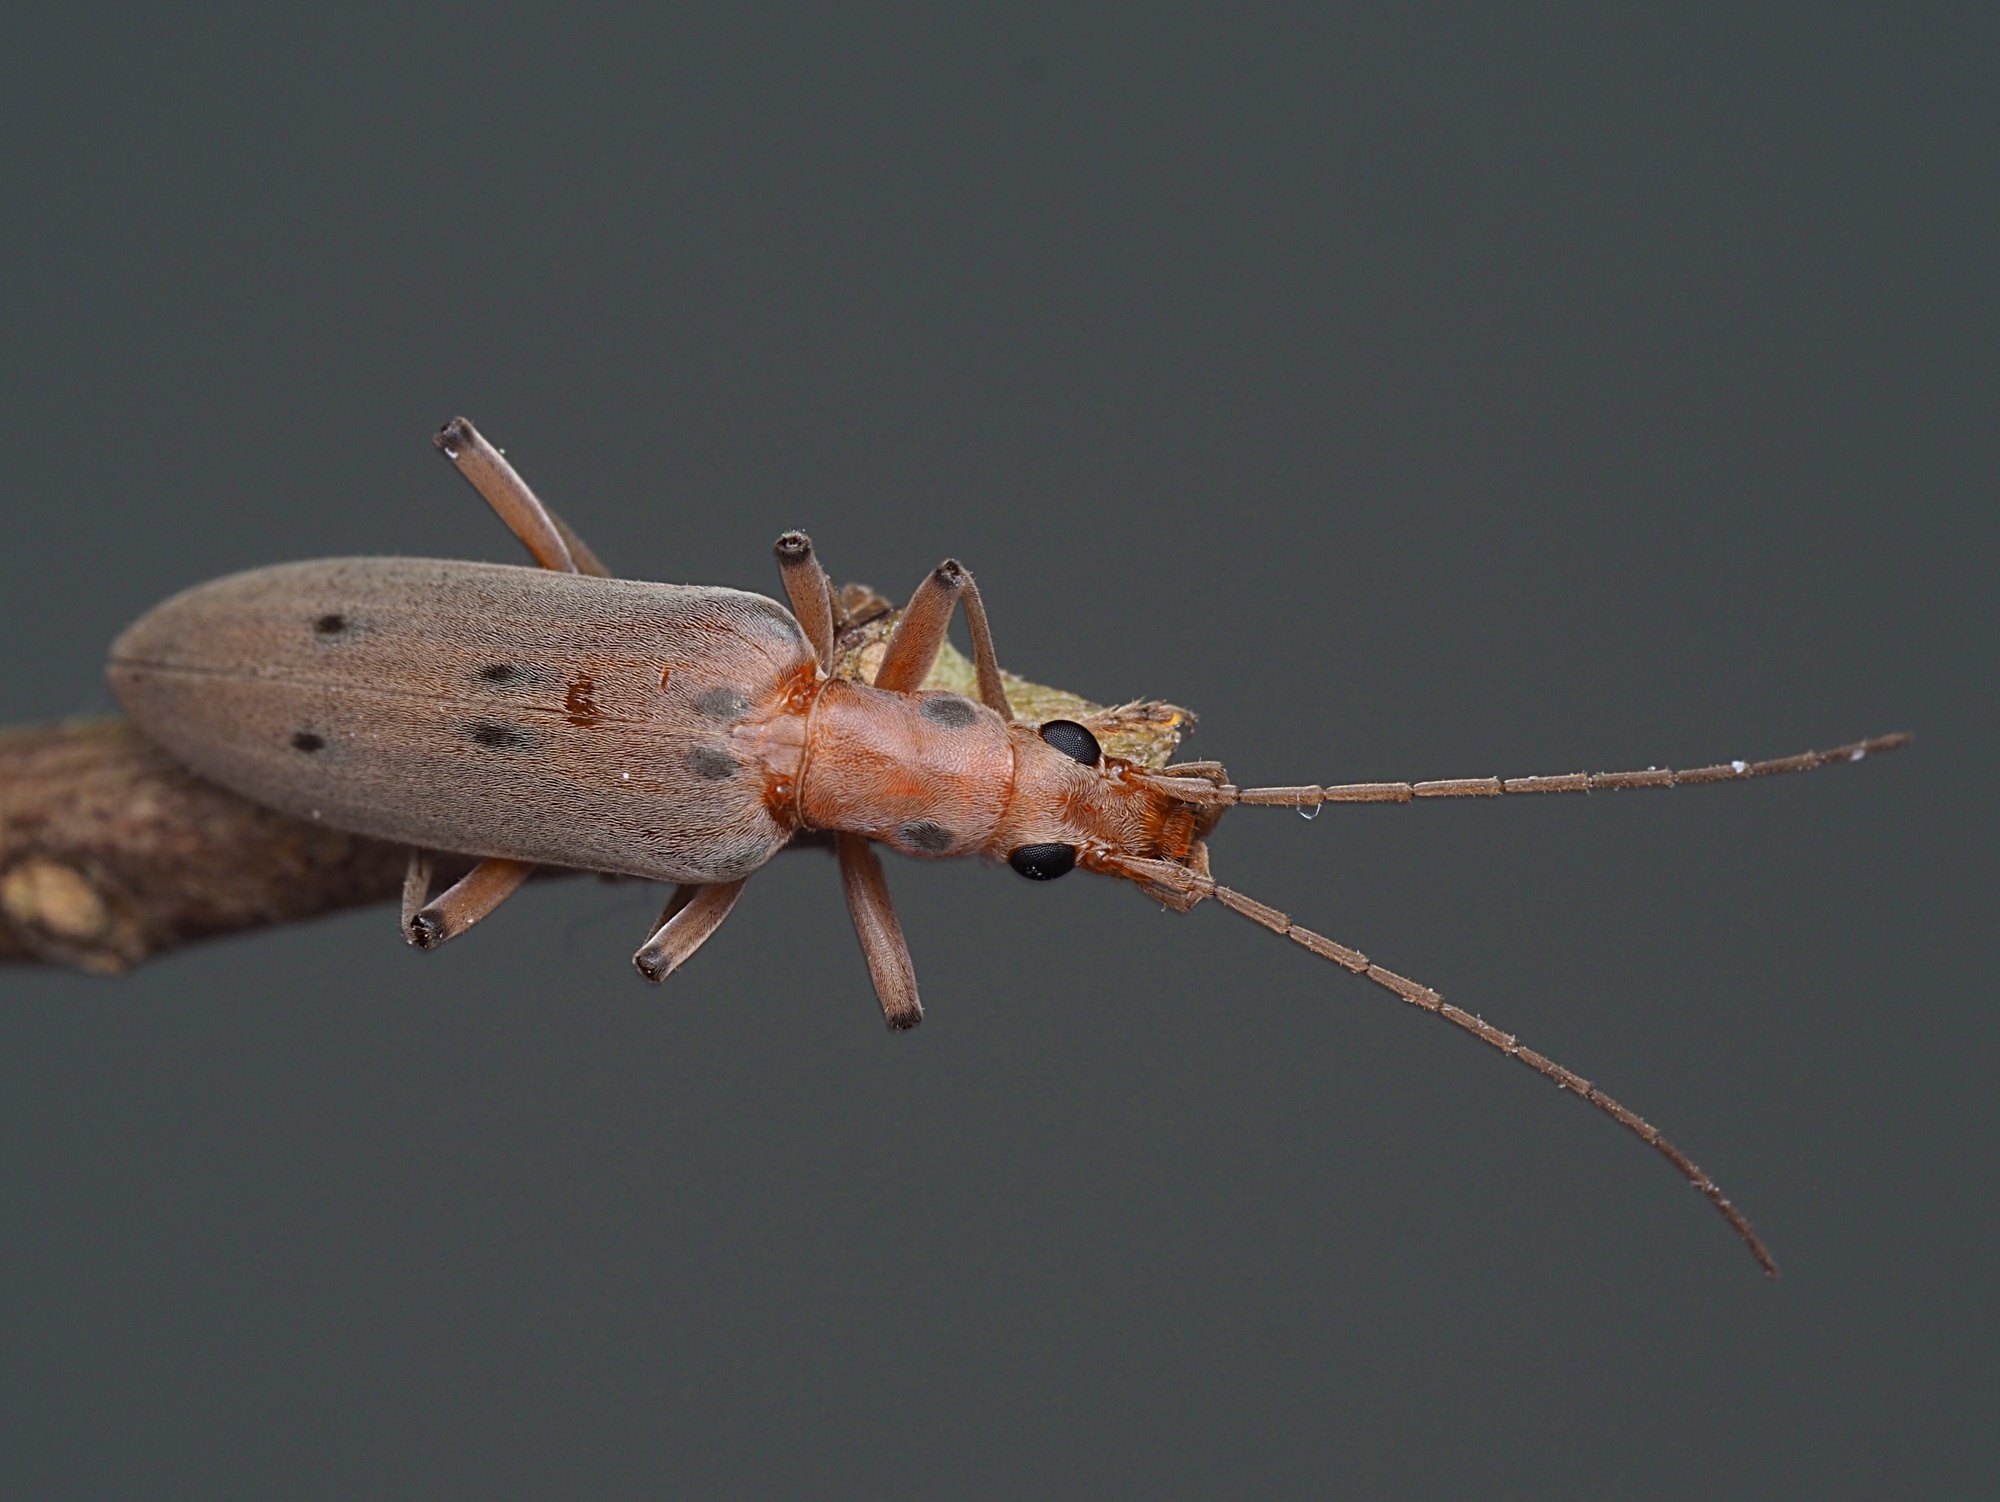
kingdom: Animalia
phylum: Arthropoda
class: Insecta
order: Coleoptera
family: Oedemeridae
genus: Parisopalpus
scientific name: Parisopalpus
